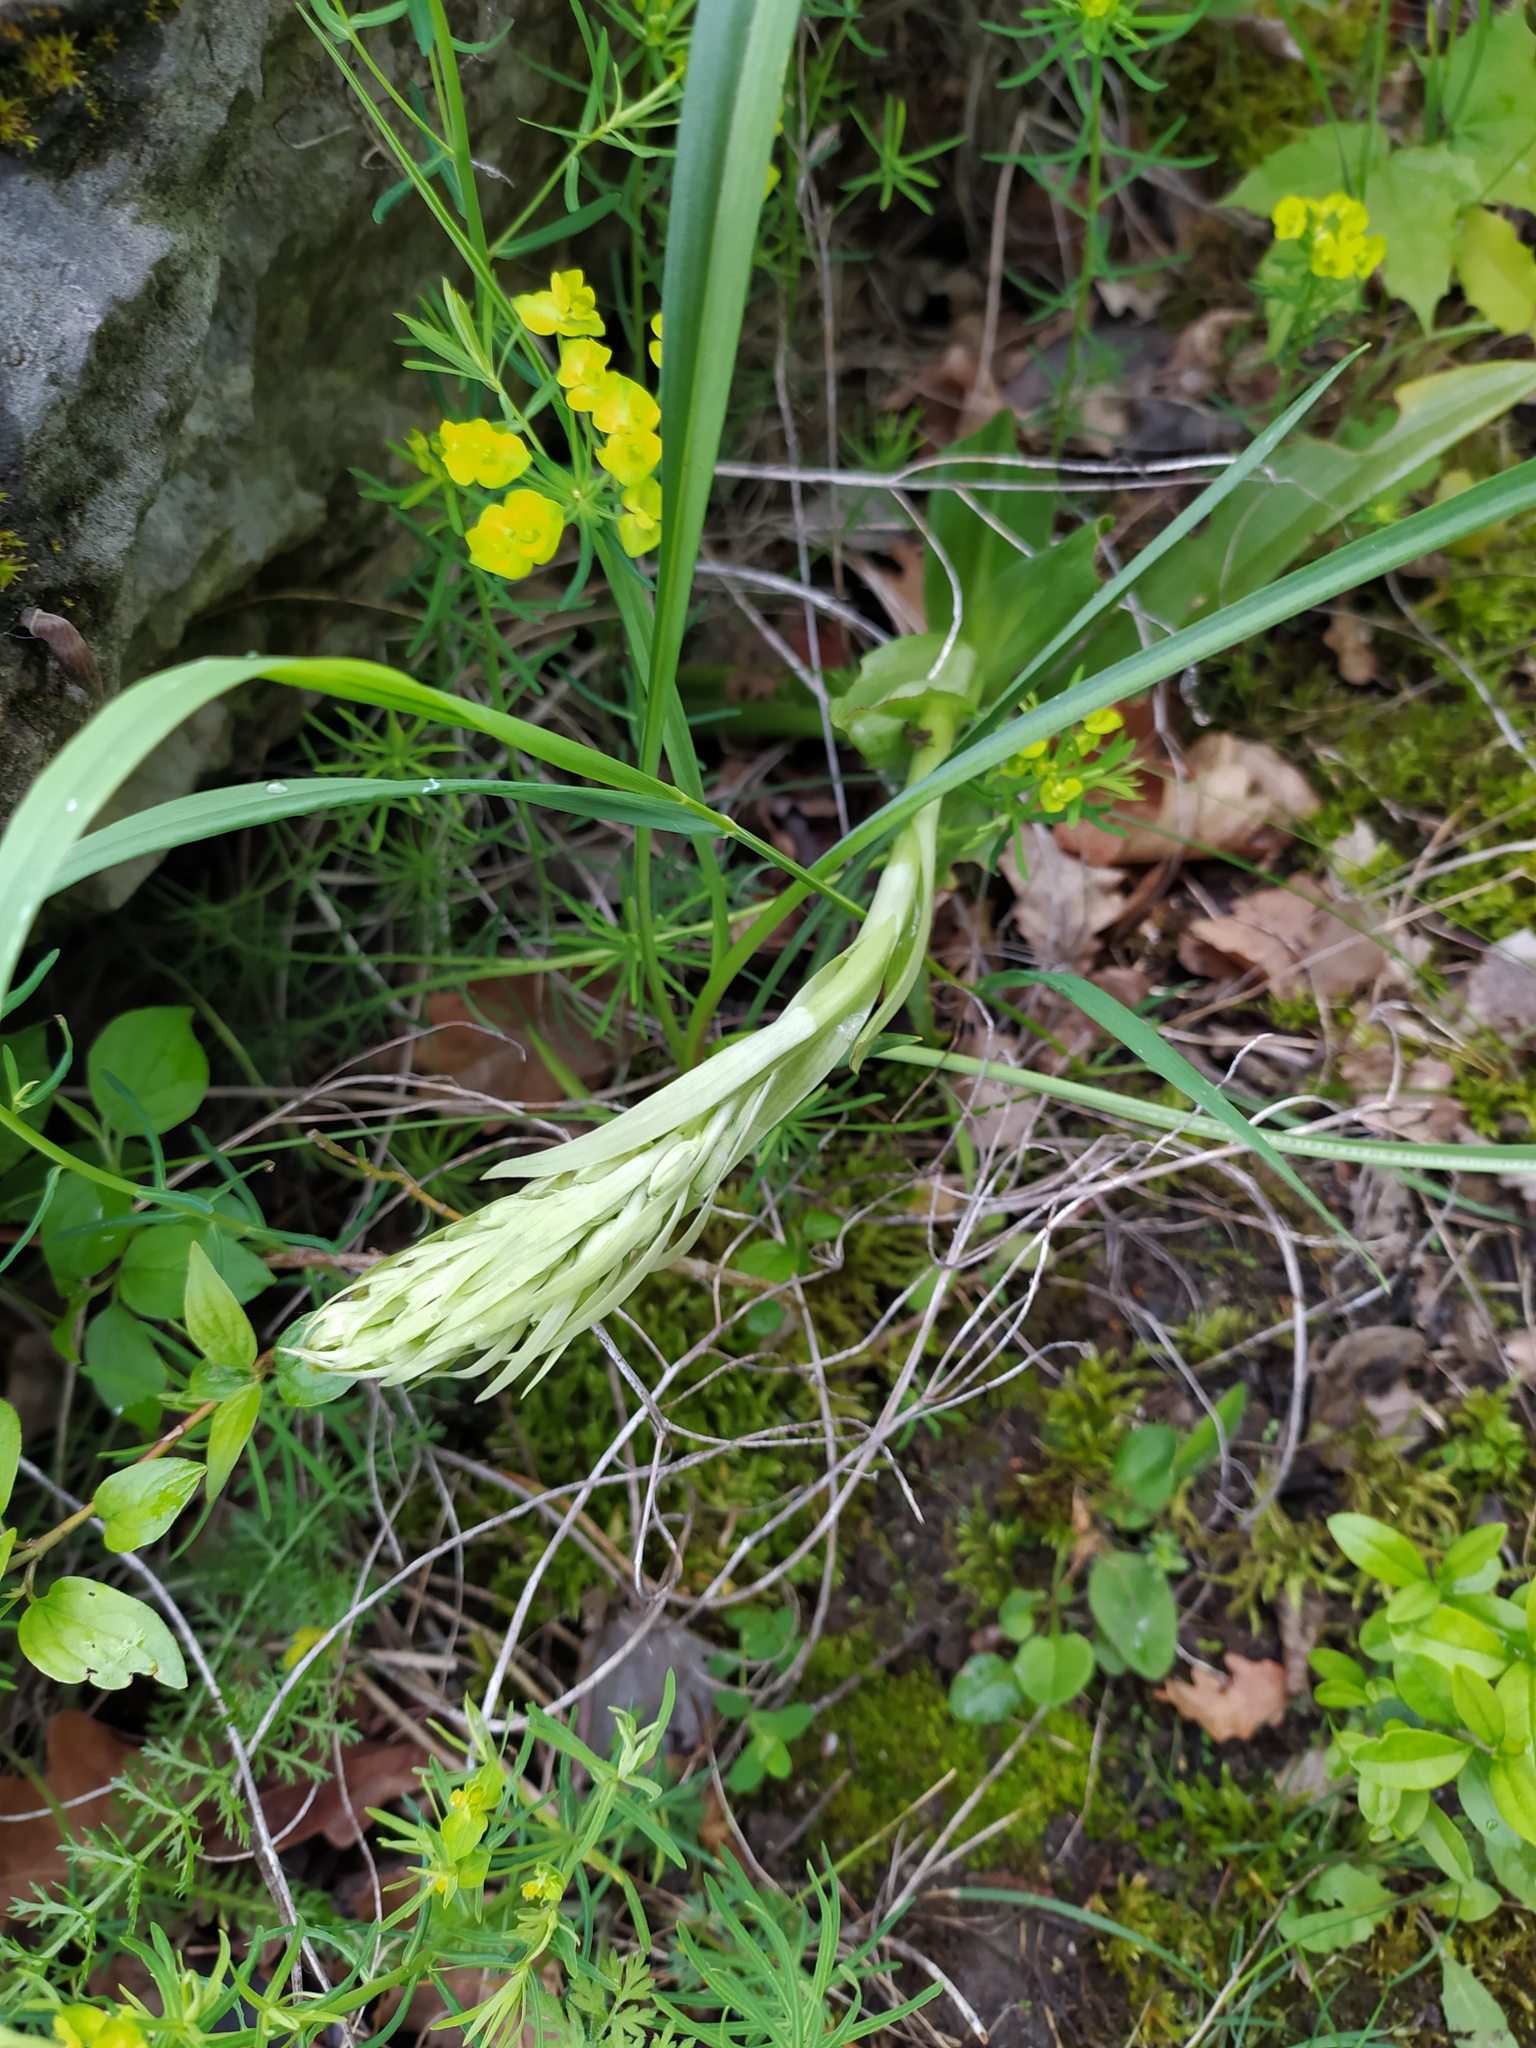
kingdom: Plantae
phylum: Tracheophyta
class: Liliopsida
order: Asparagales
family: Orchidaceae
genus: Himantoglossum
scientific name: Himantoglossum hircinum
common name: Lizard orchid
